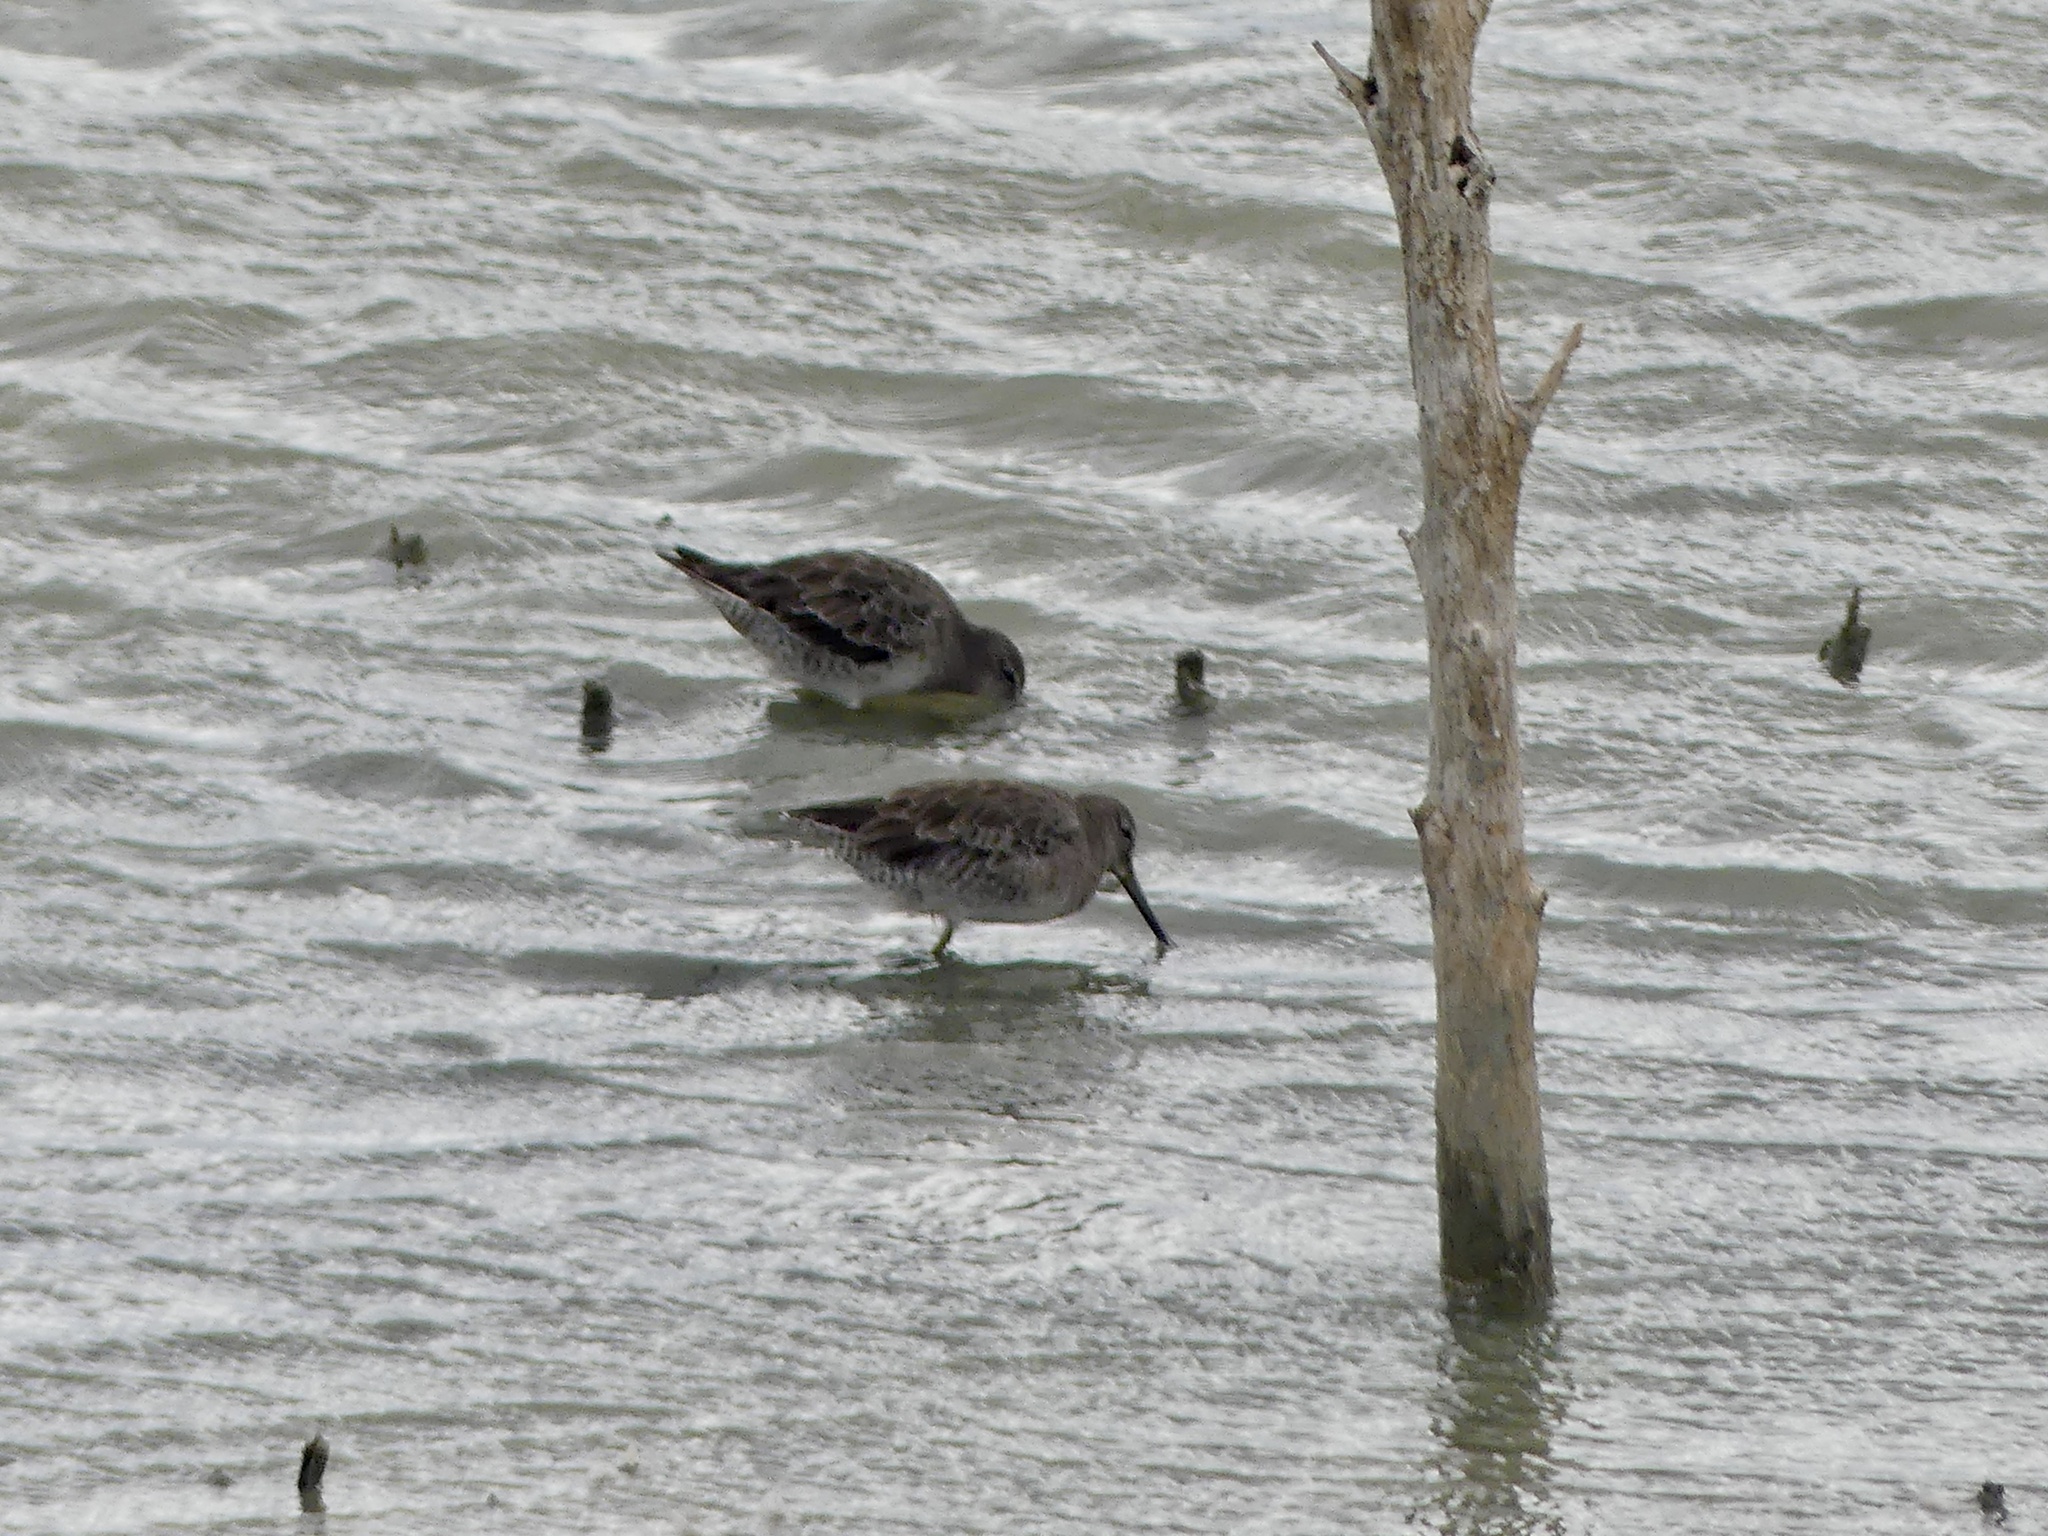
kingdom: Animalia
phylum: Chordata
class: Aves
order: Charadriiformes
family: Scolopacidae
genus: Limnodromus
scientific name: Limnodromus scolopaceus
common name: Long-billed dowitcher
